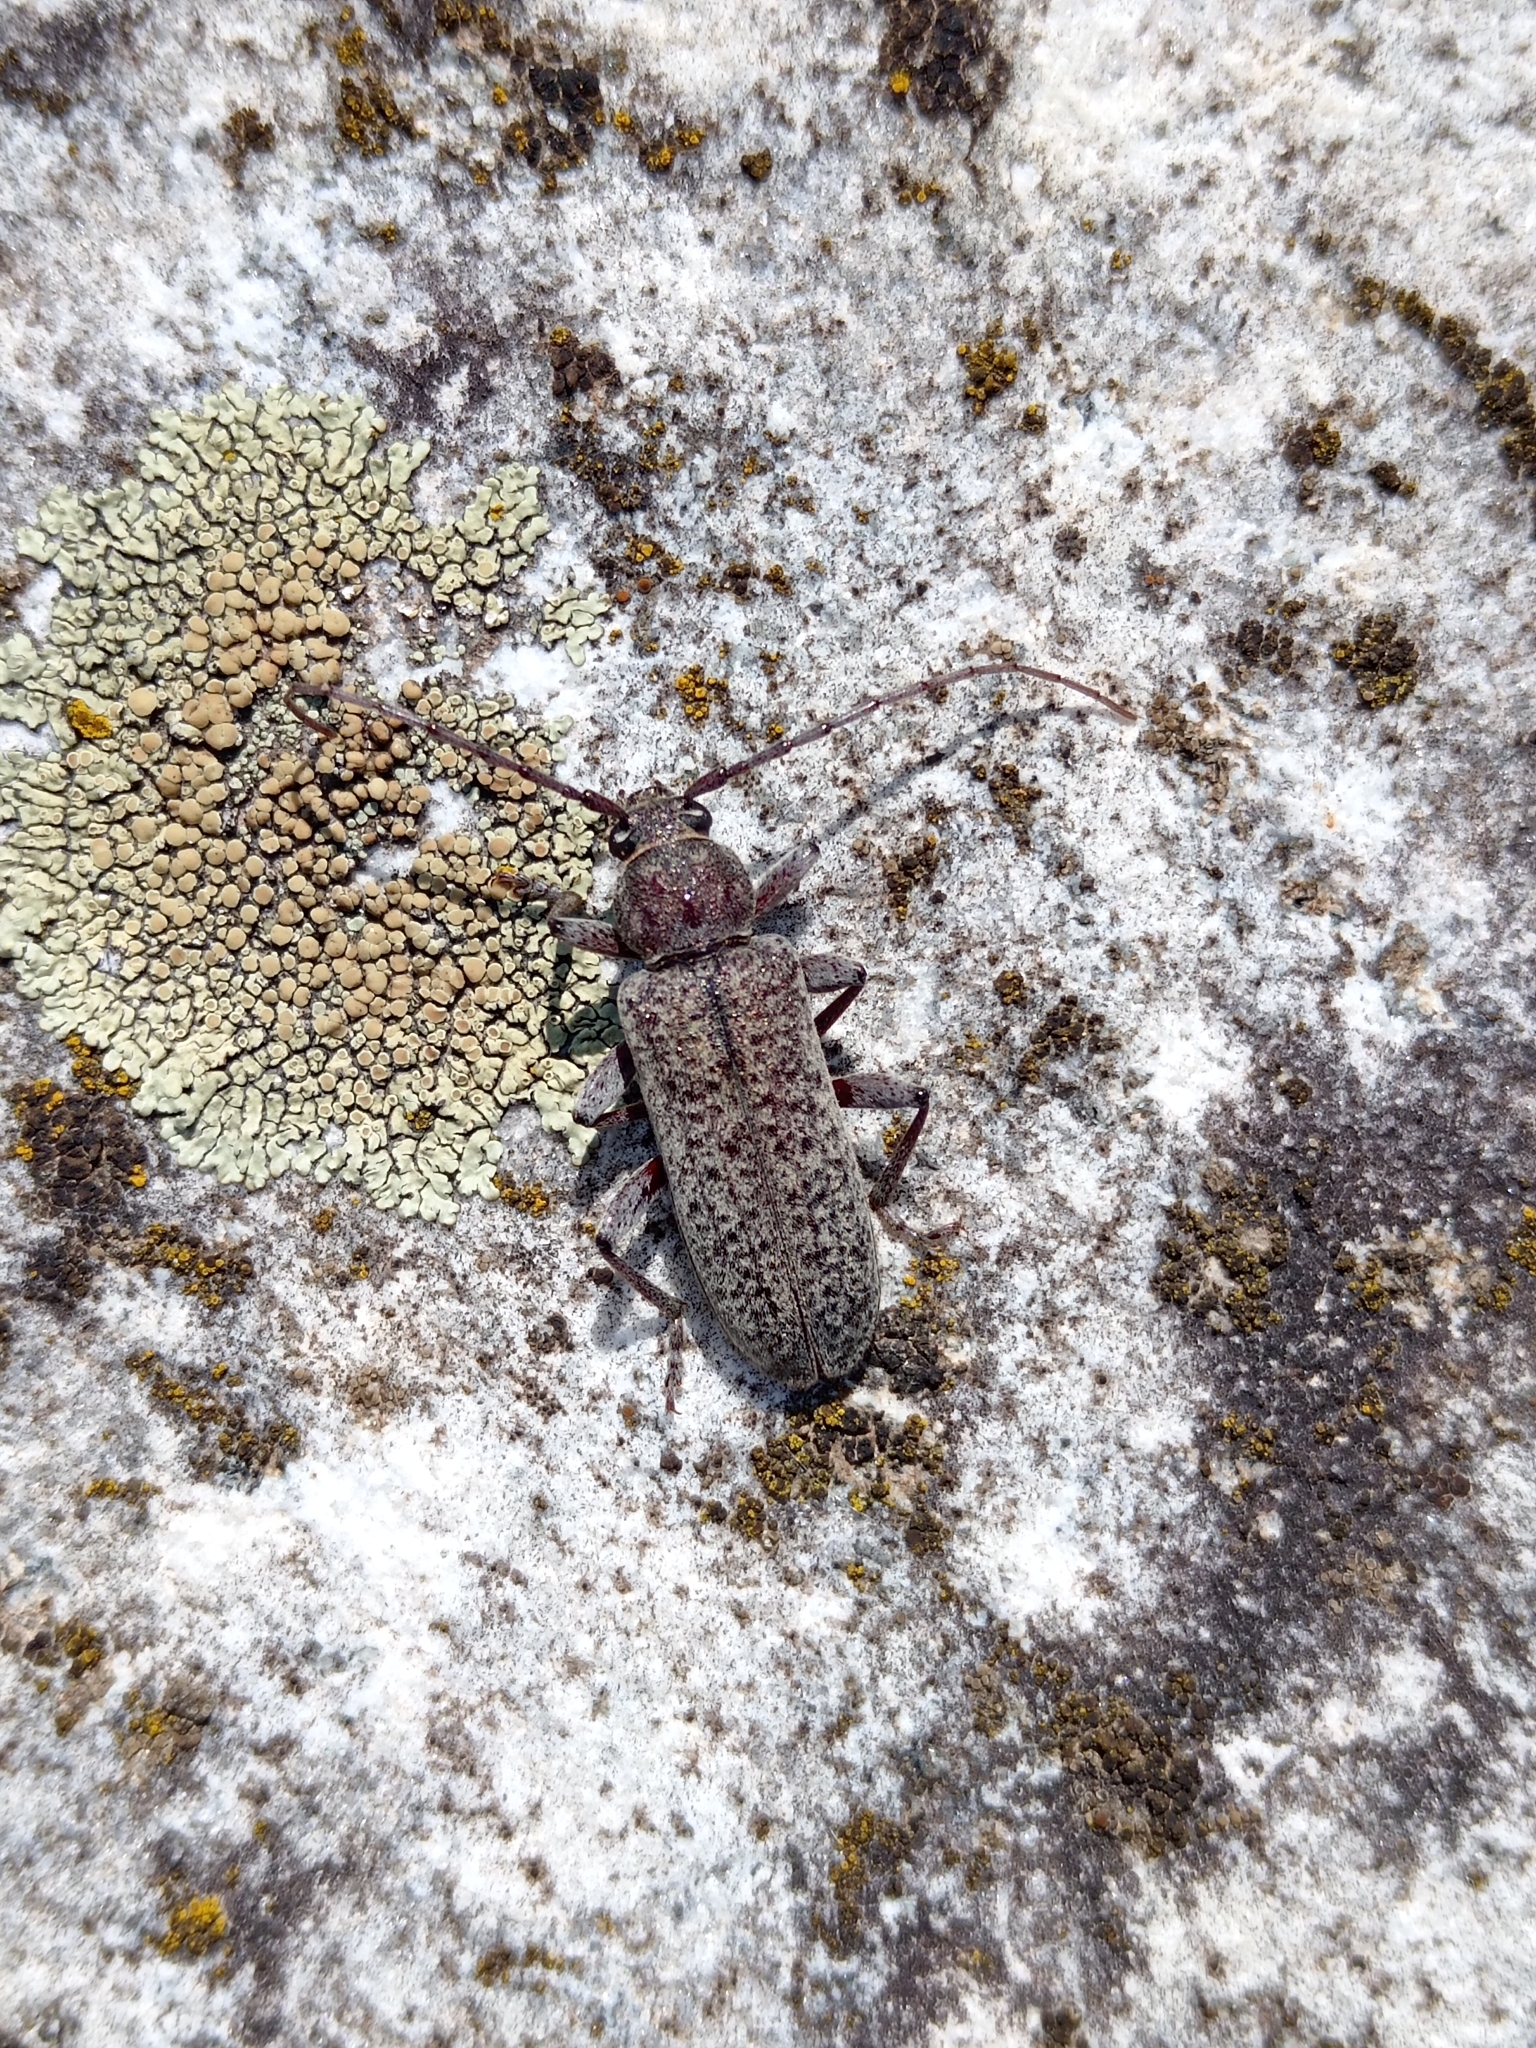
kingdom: Animalia
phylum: Arthropoda
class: Insecta
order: Coleoptera
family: Cerambycidae
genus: Trichoferus
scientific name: Trichoferus holosericeus
